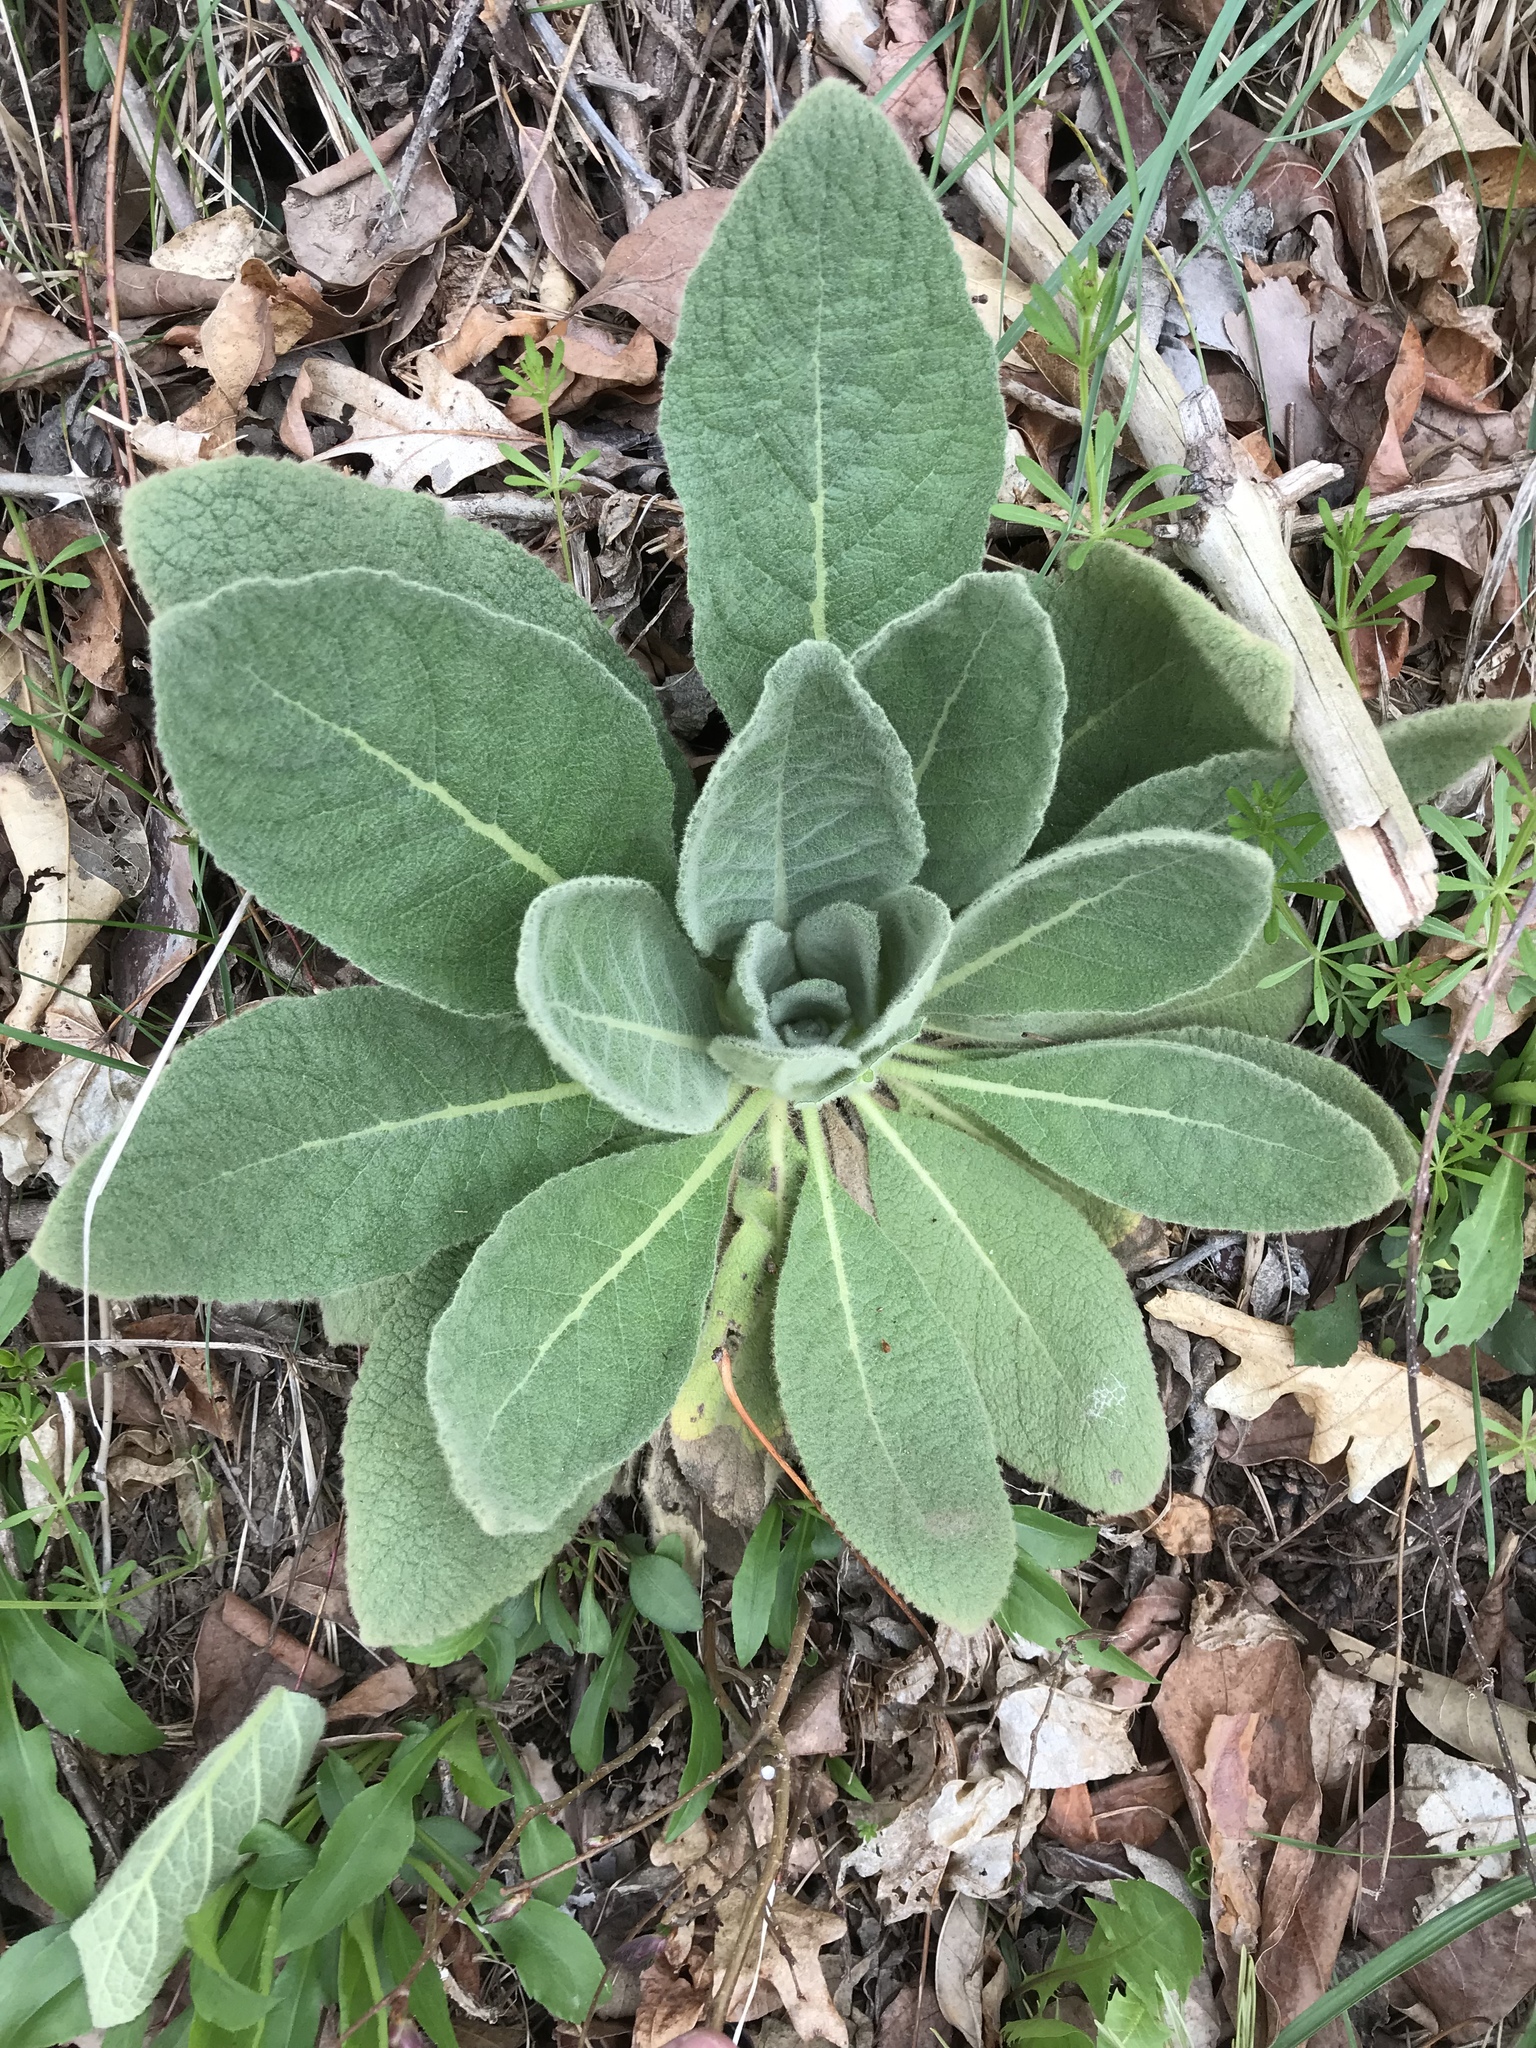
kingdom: Plantae
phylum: Tracheophyta
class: Magnoliopsida
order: Lamiales
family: Scrophulariaceae
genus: Verbascum
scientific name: Verbascum thapsus
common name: Common mullein
